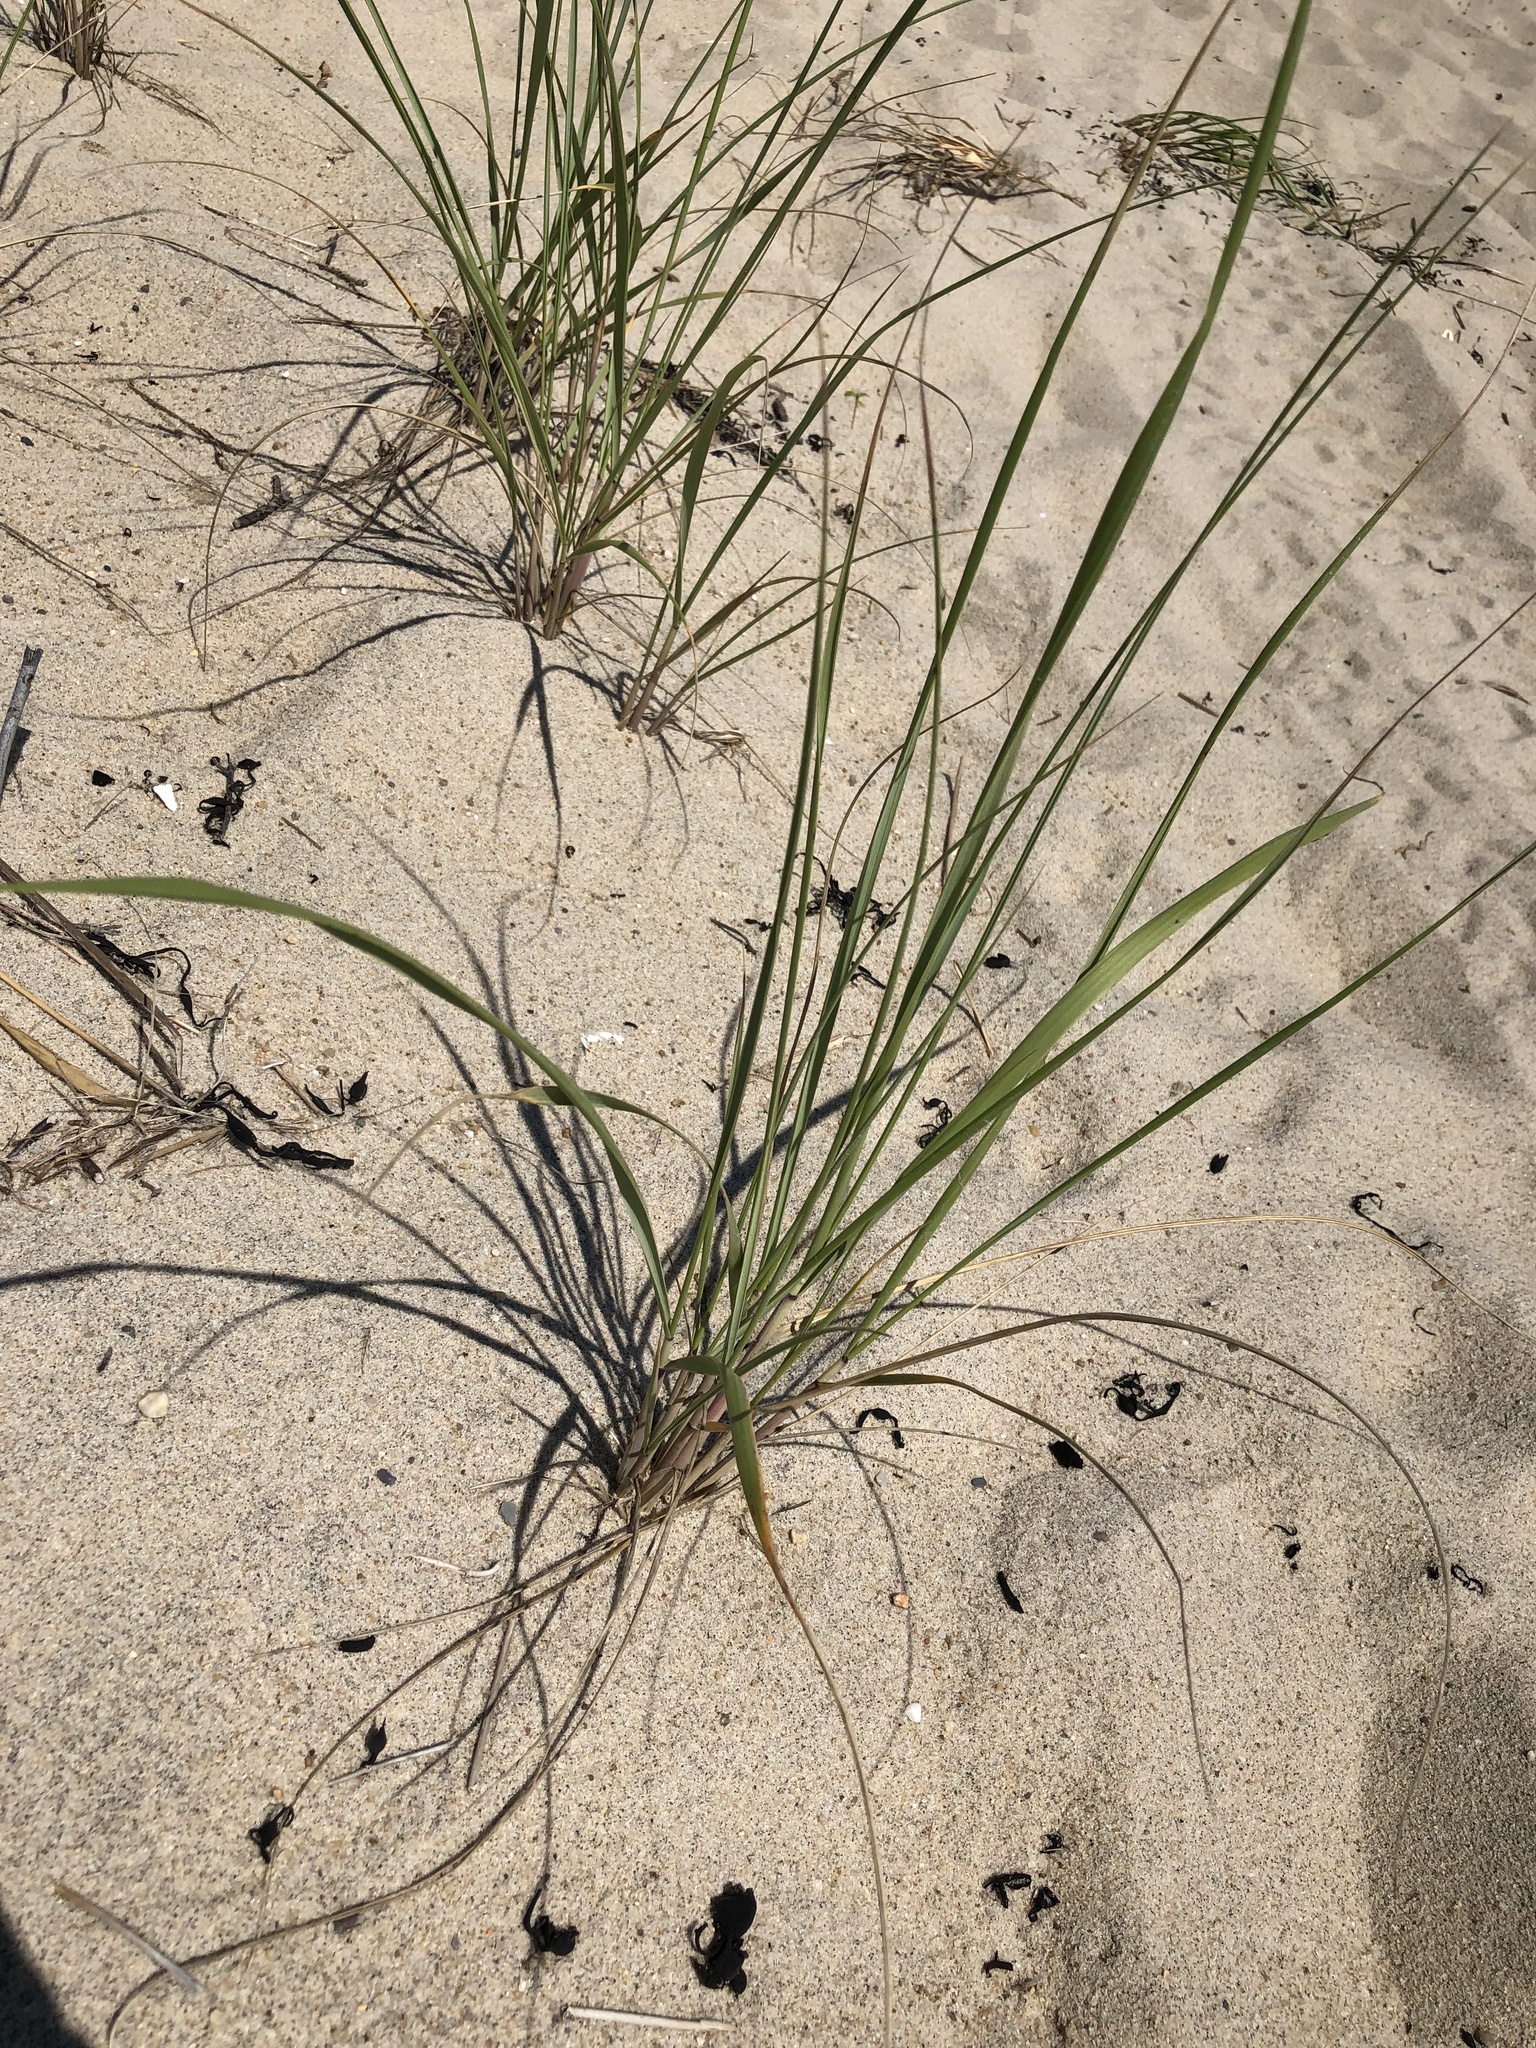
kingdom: Plantae
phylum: Tracheophyta
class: Liliopsida
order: Poales
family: Poaceae
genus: Calamagrostis
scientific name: Calamagrostis breviligulata
